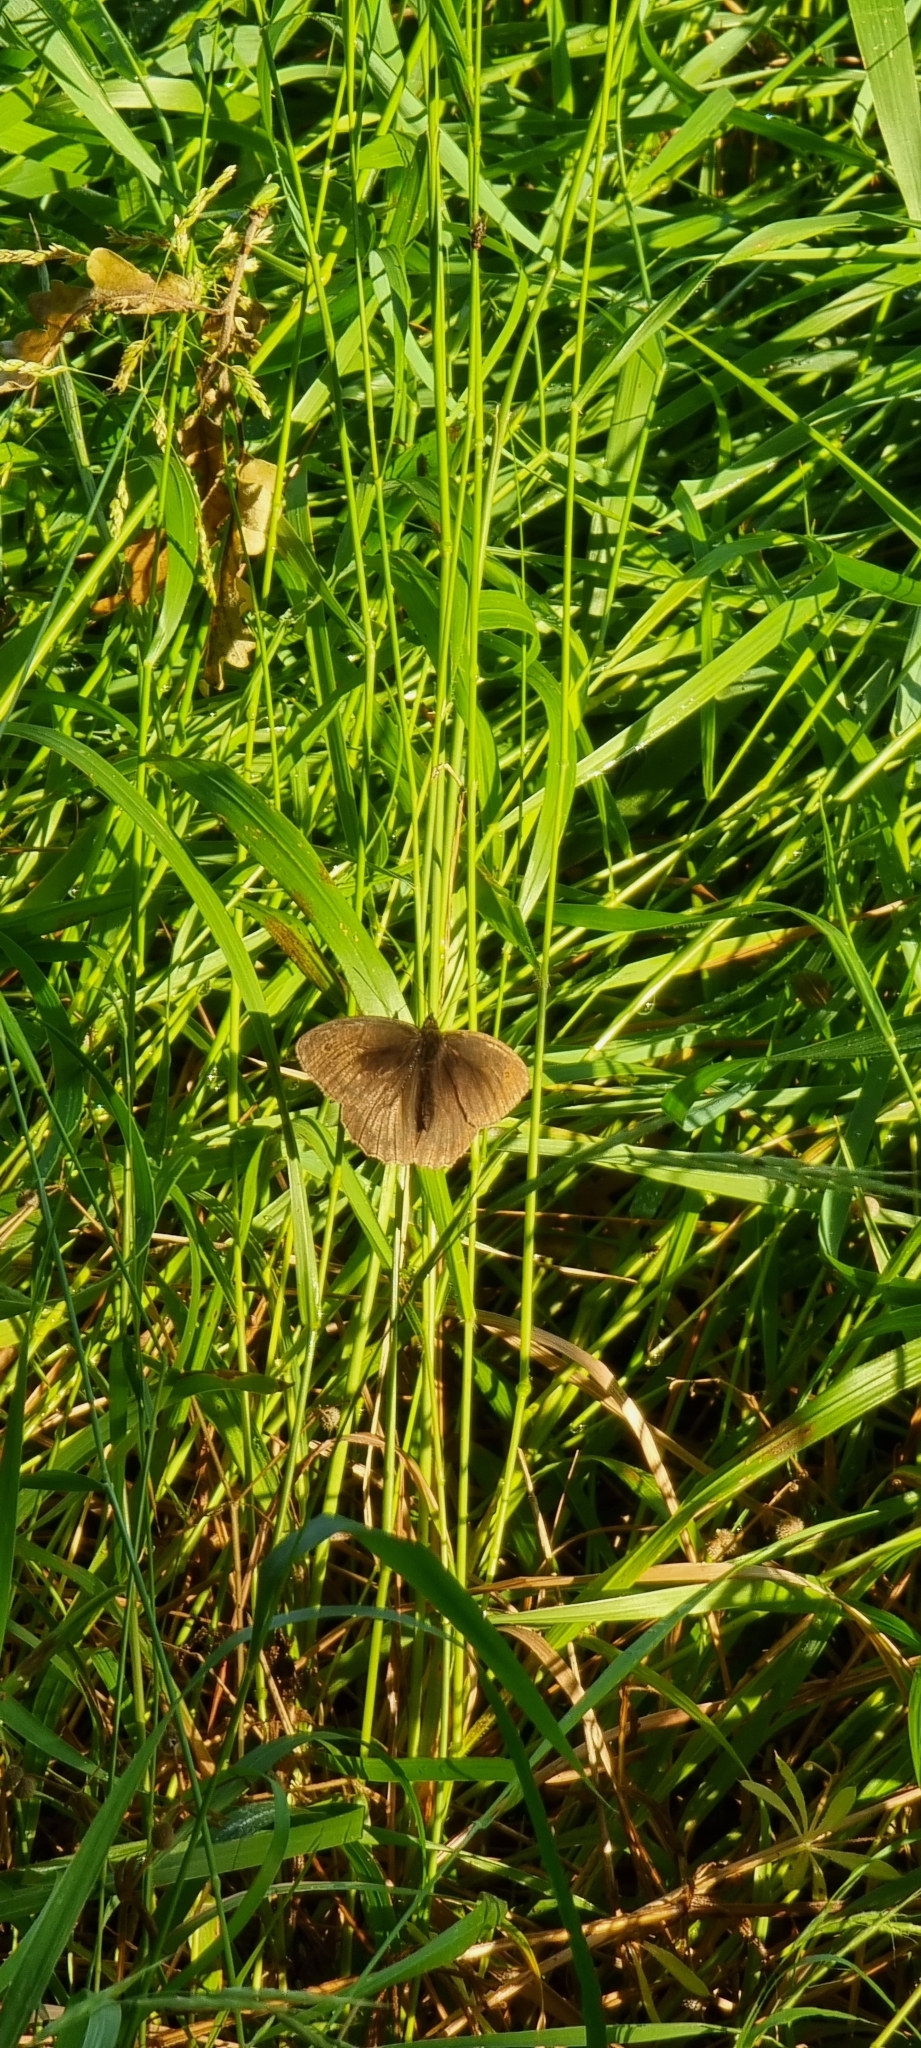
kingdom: Animalia
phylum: Arthropoda
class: Insecta
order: Lepidoptera
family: Nymphalidae
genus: Maniola
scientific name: Maniola jurtina
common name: Meadow brown
